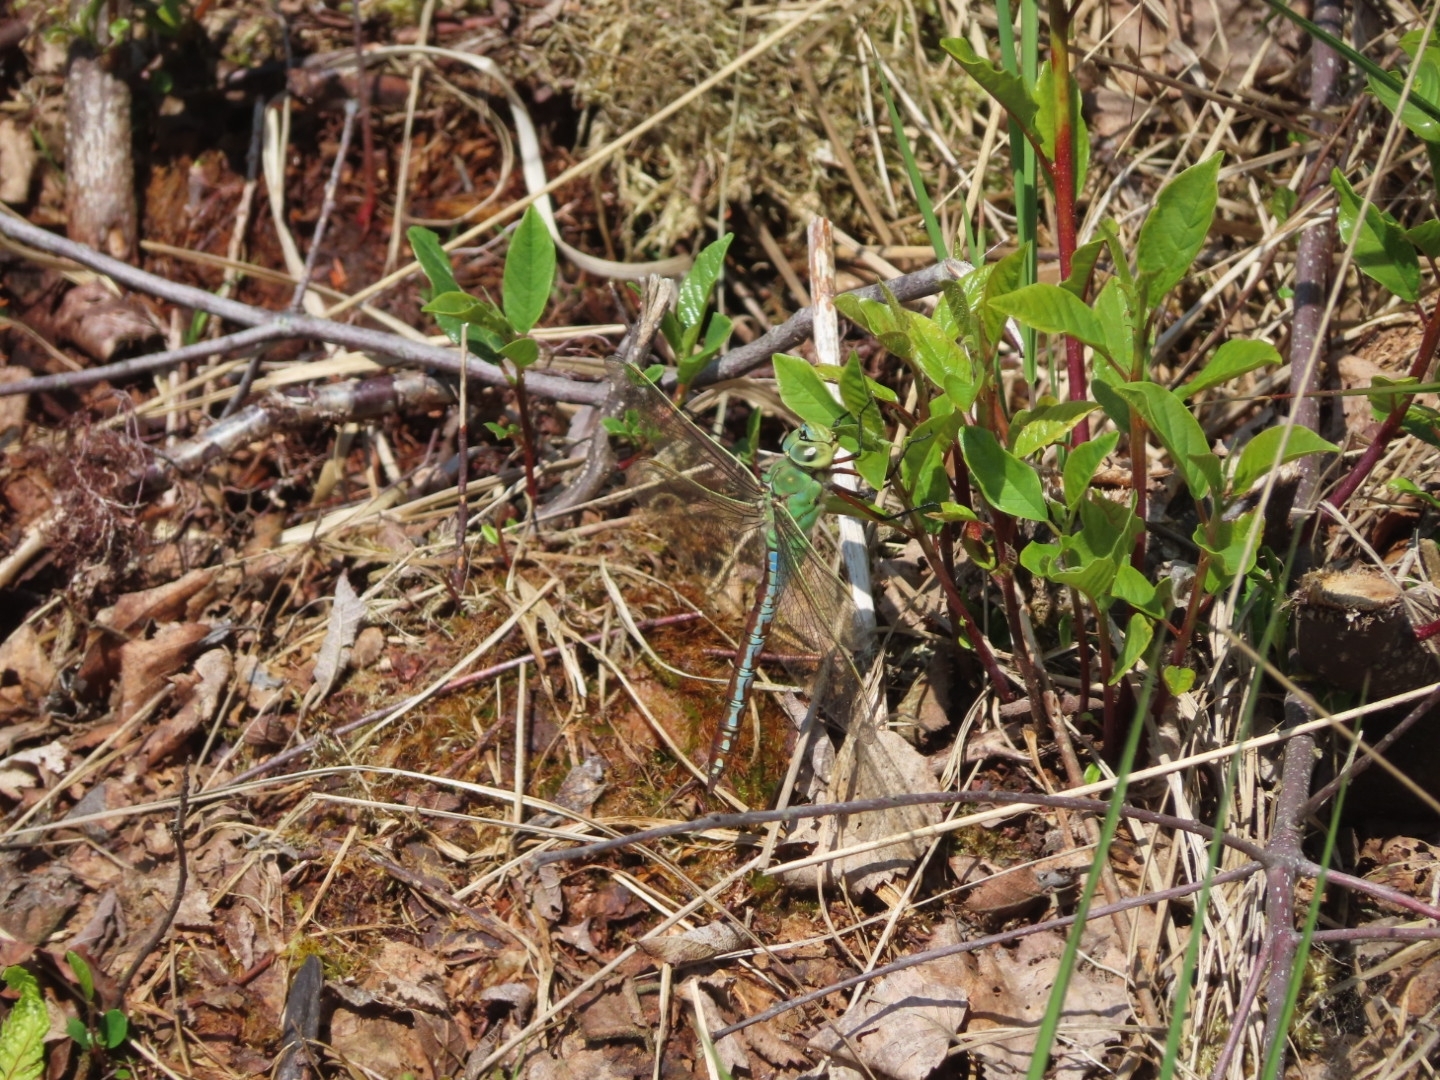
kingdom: Animalia
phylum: Arthropoda
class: Insecta
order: Odonata
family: Aeshnidae
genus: Anax
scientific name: Anax imperator
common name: Emperor dragonfly
